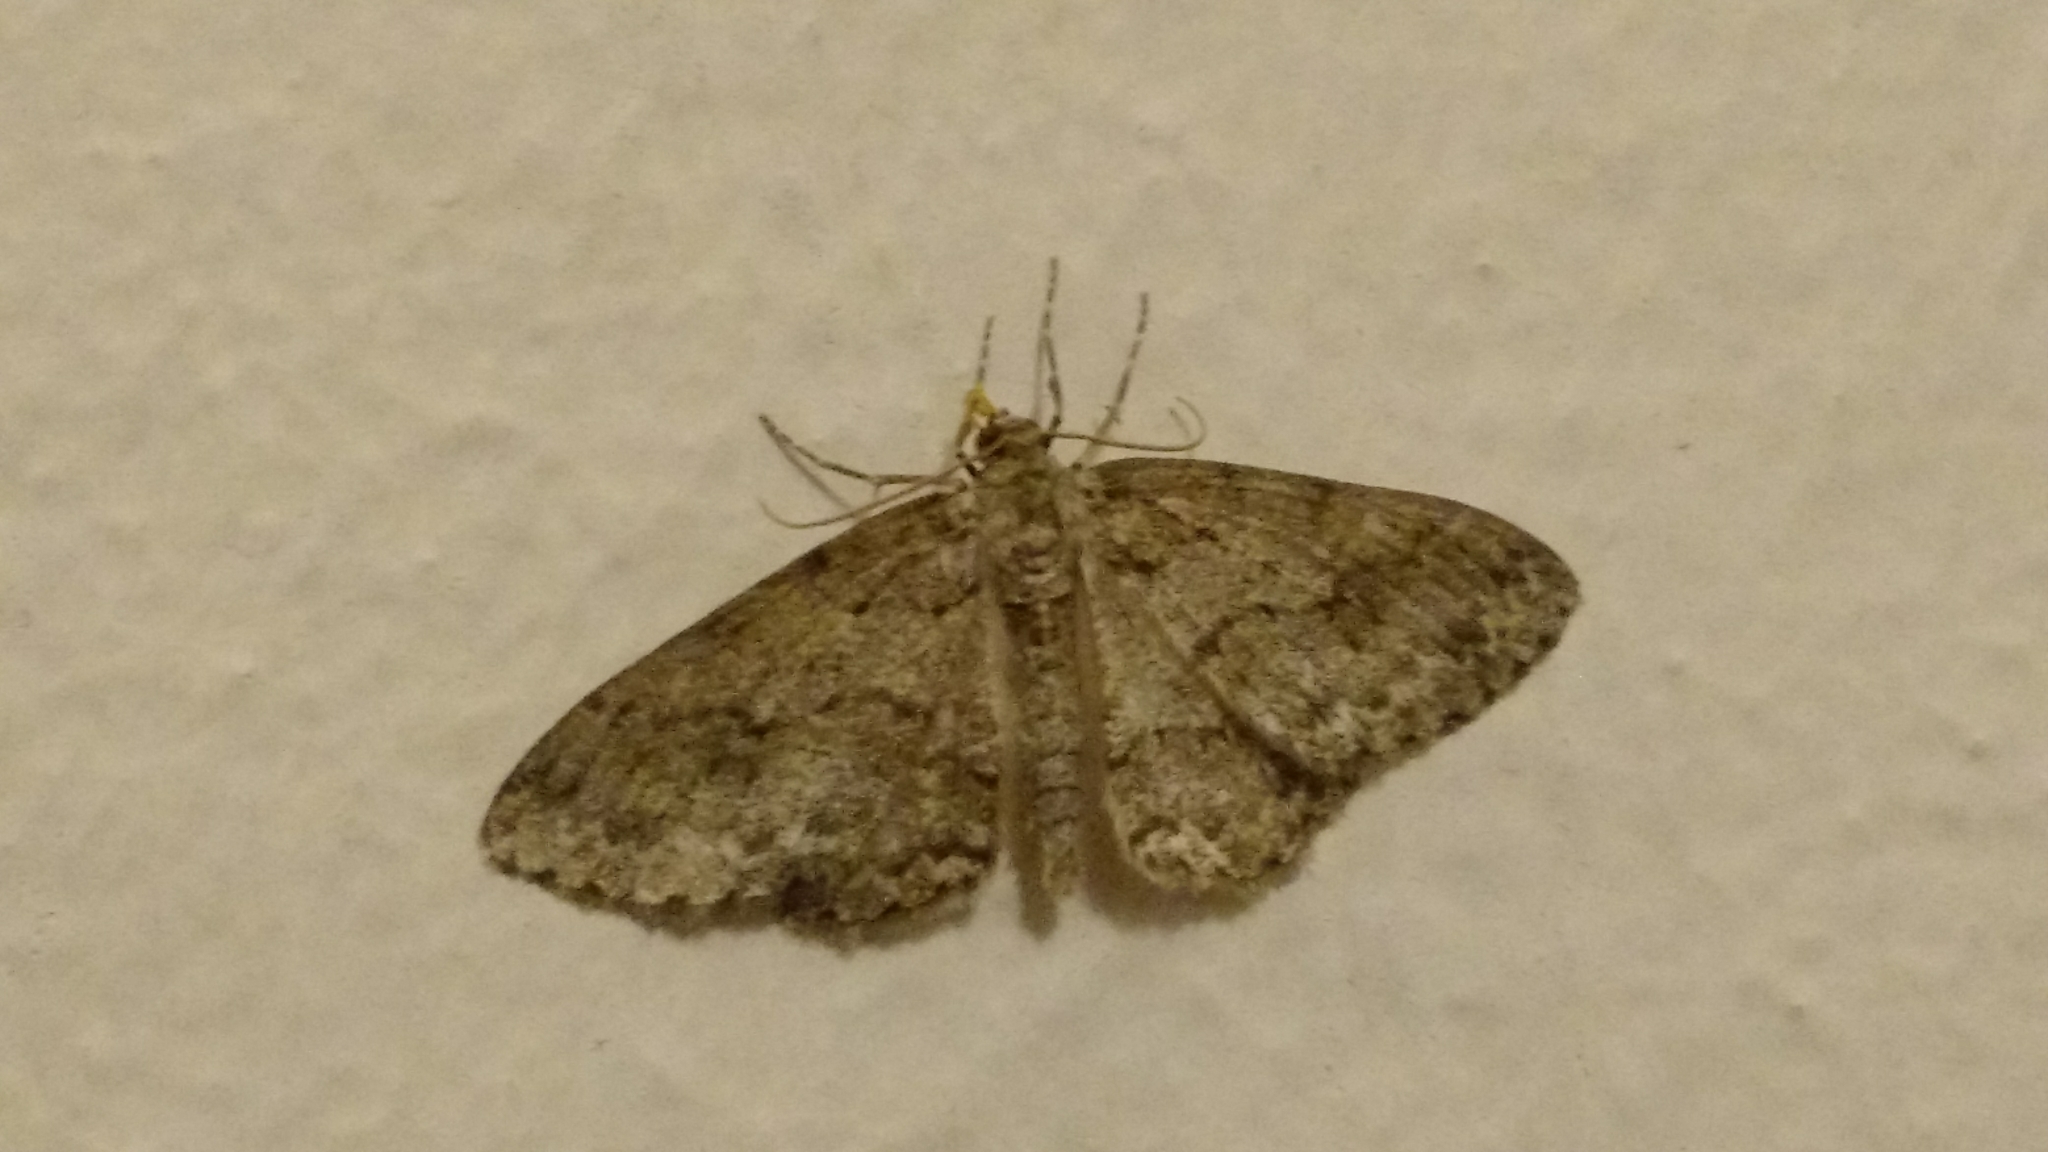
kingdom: Animalia
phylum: Arthropoda
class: Insecta
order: Lepidoptera
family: Geometridae
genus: Ectropis
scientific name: Ectropis crepuscularia
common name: Engrailed
